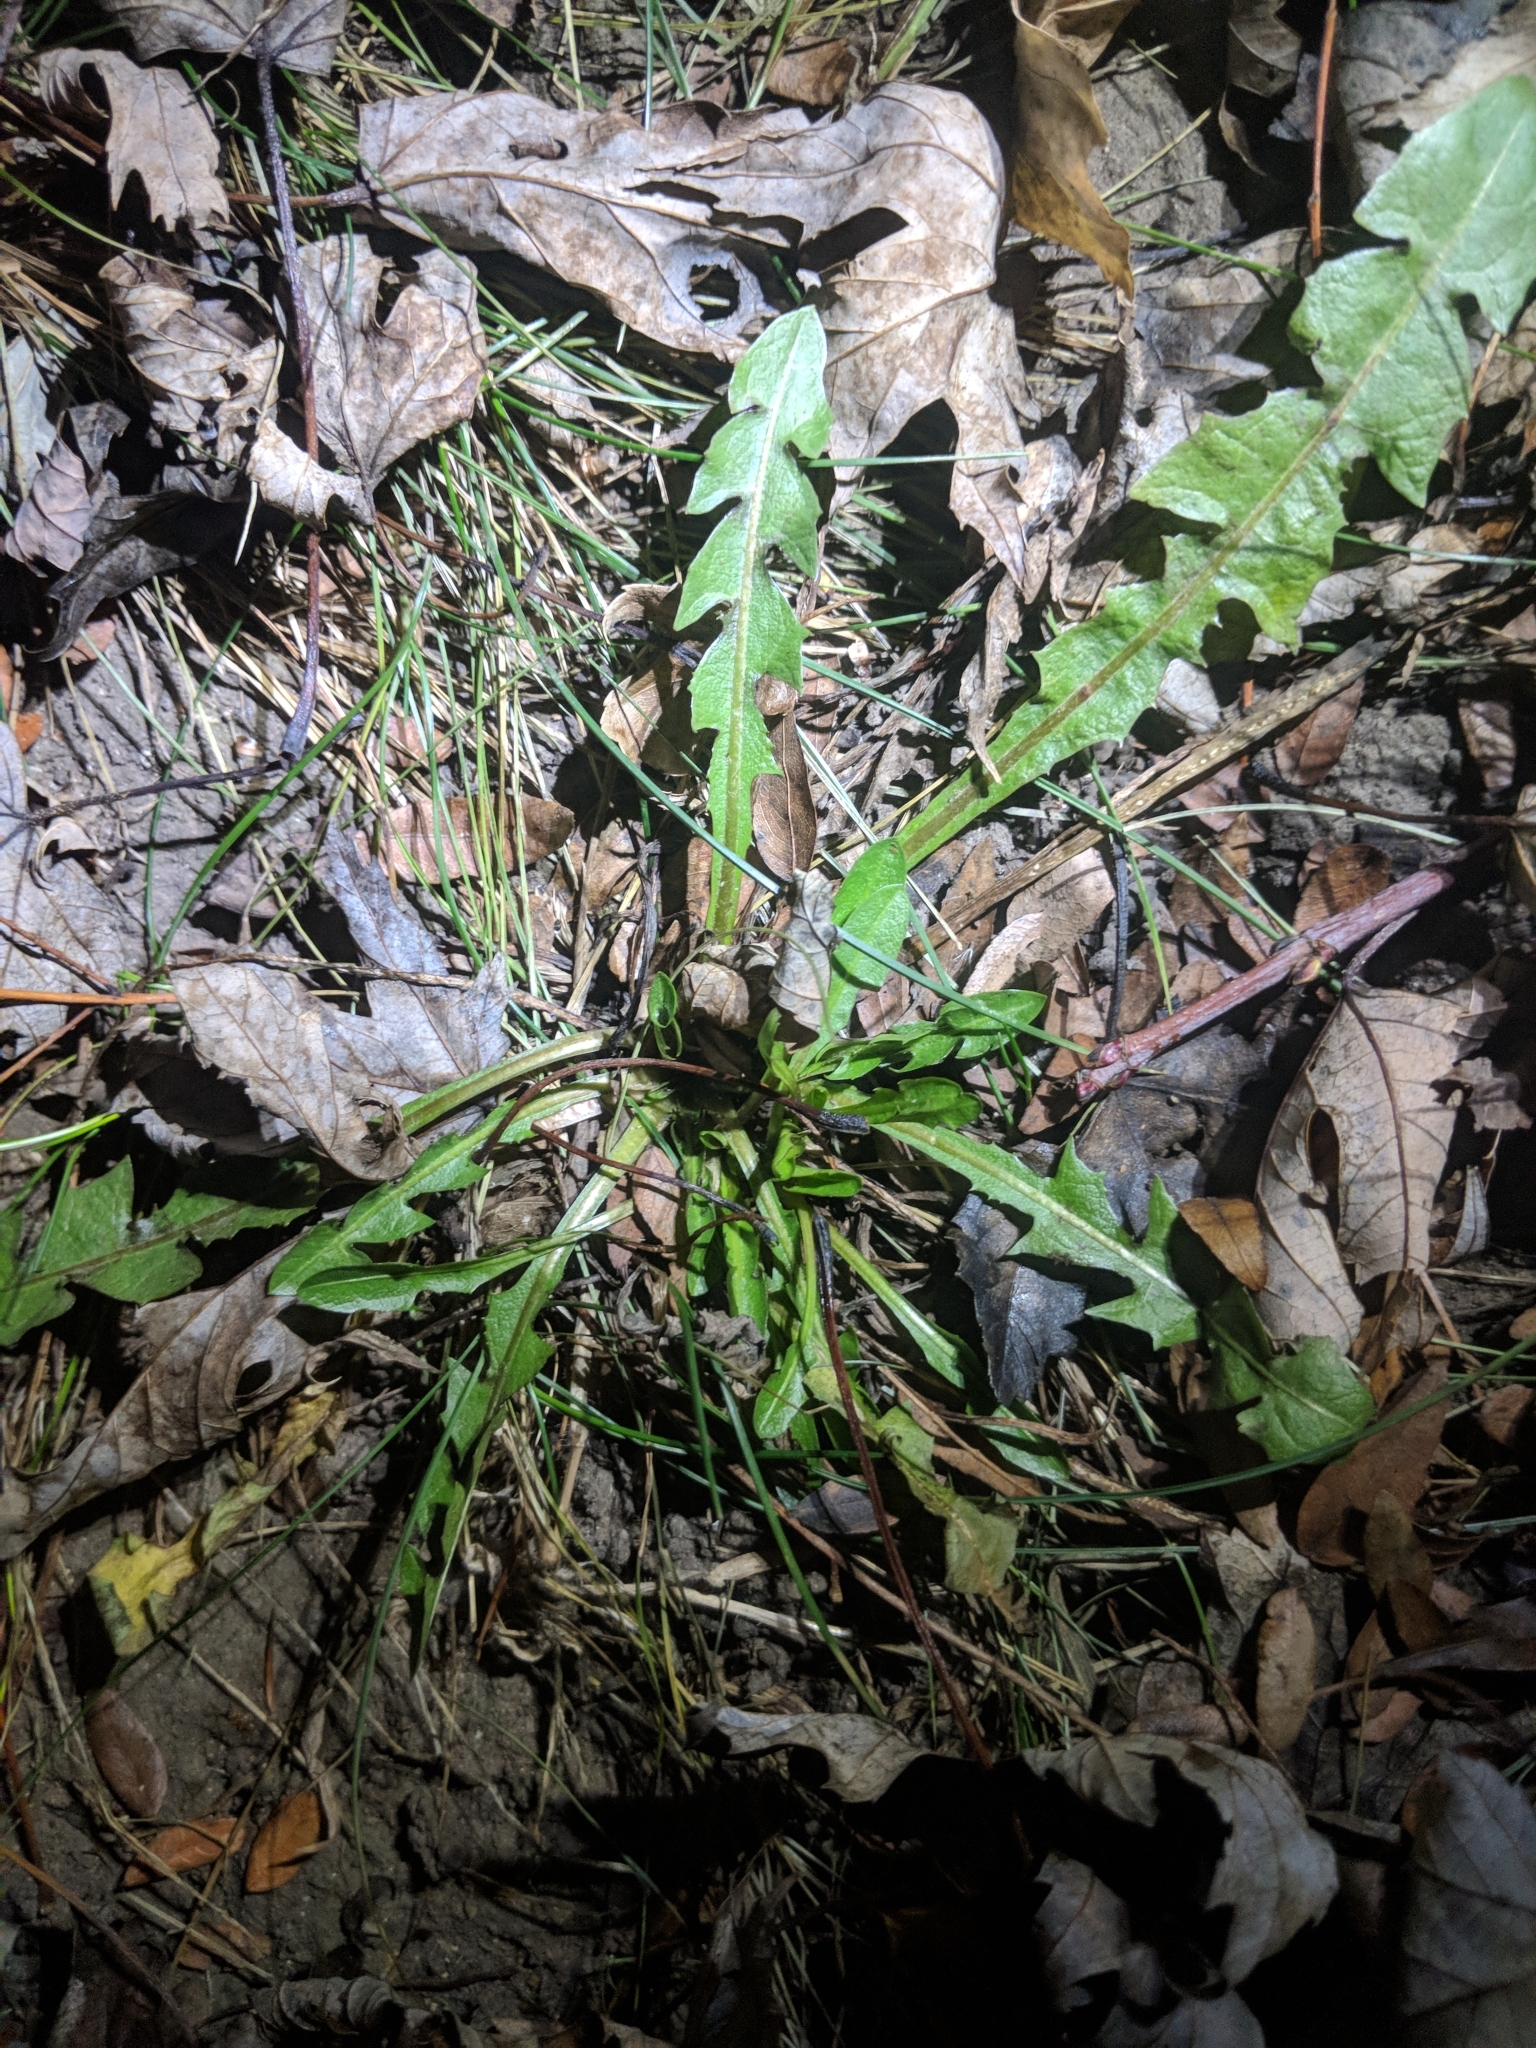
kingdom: Plantae
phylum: Tracheophyta
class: Magnoliopsida
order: Asterales
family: Asteraceae
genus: Taraxacum
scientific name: Taraxacum officinale
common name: Common dandelion
